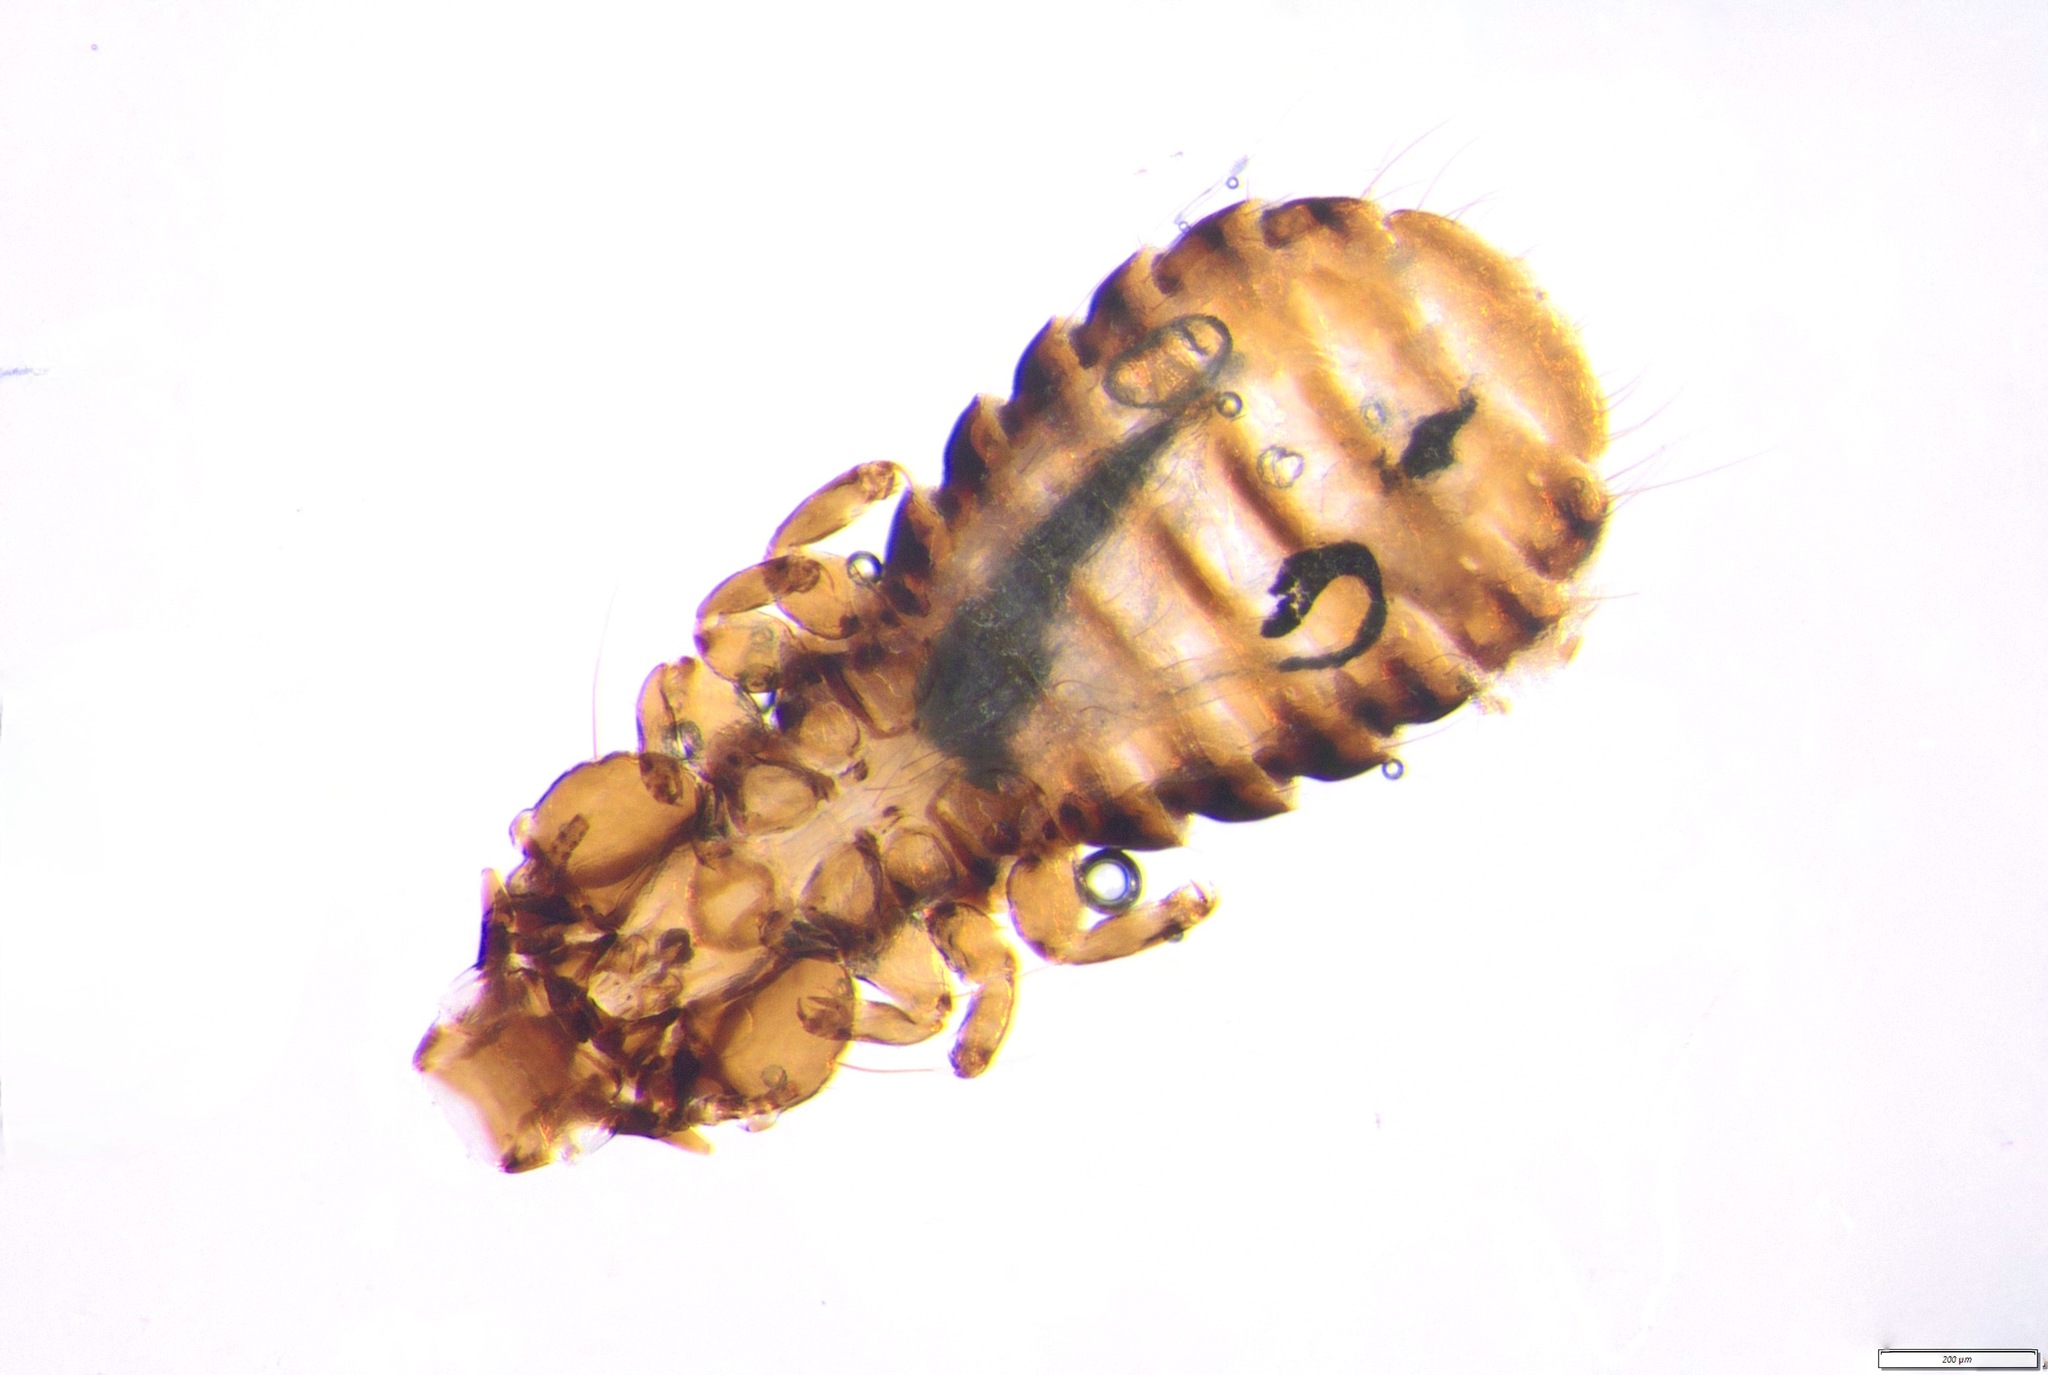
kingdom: Animalia
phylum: Arthropoda
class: Insecta
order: Psocodea
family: Philopteridae
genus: Trabeculus
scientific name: Trabeculus hexakon
